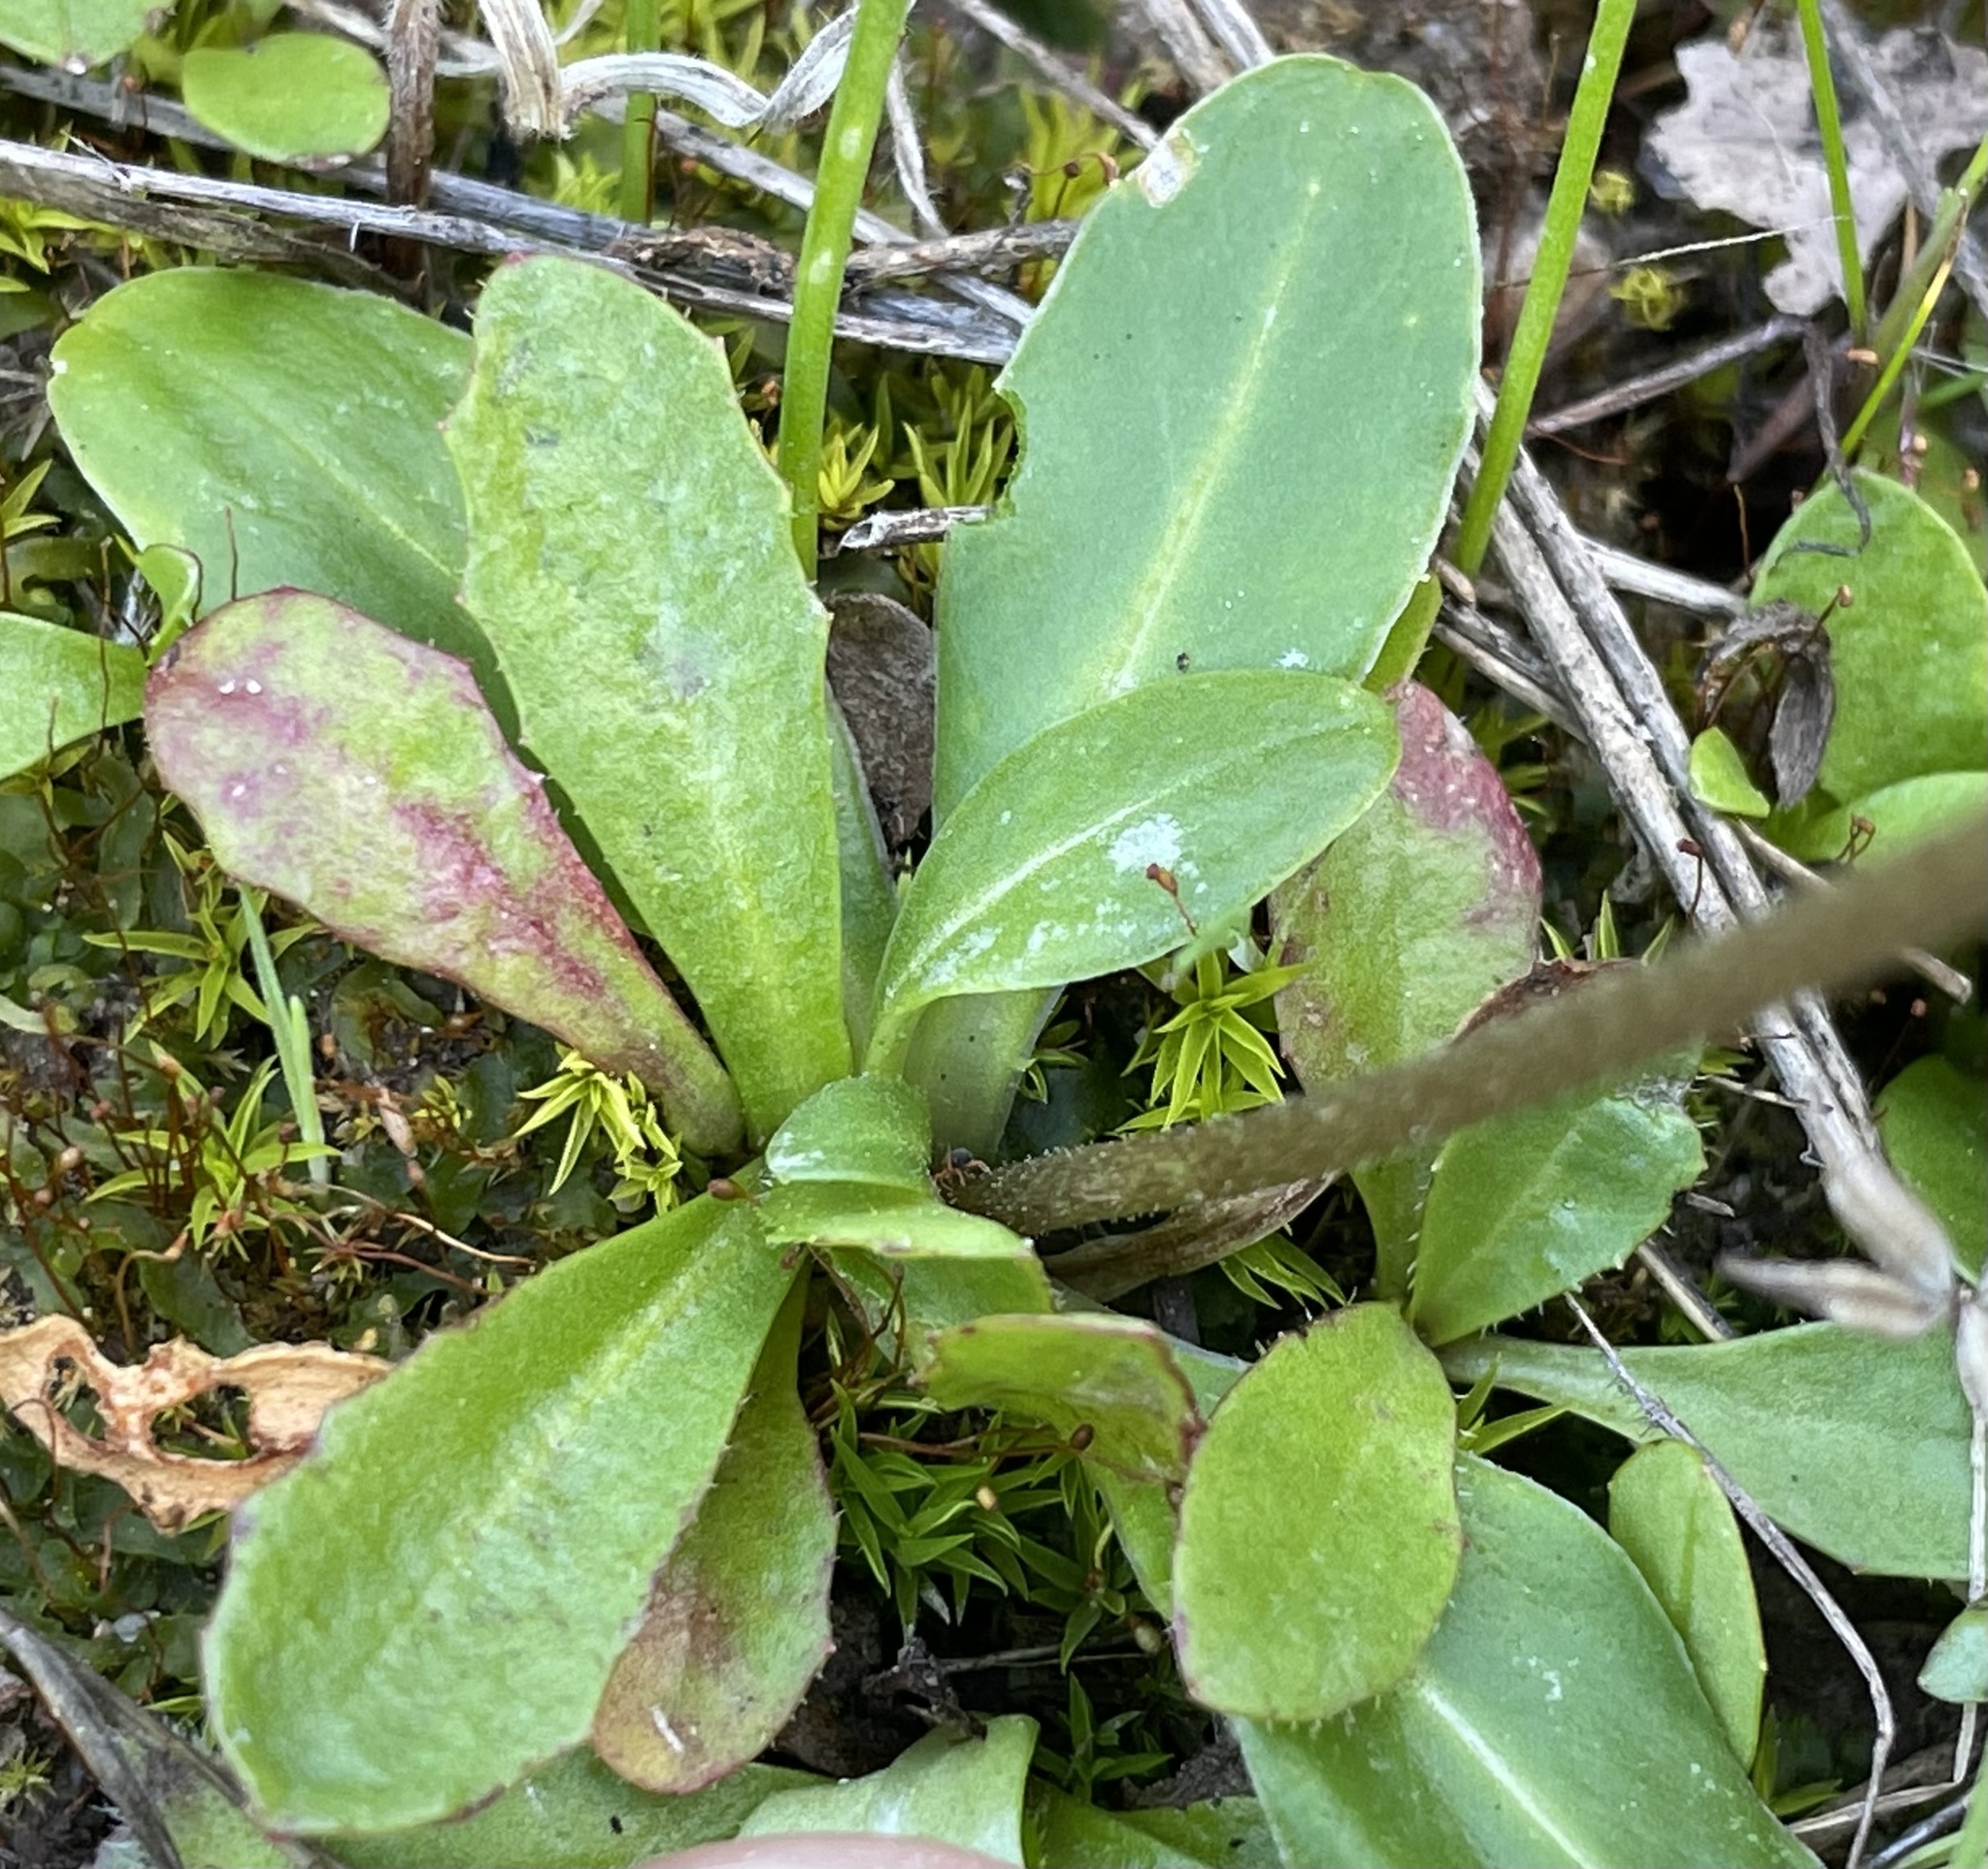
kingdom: Plantae
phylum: Tracheophyta
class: Magnoliopsida
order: Ericales
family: Primulaceae
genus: Dodecatheon
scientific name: Dodecatheon clevelandii
